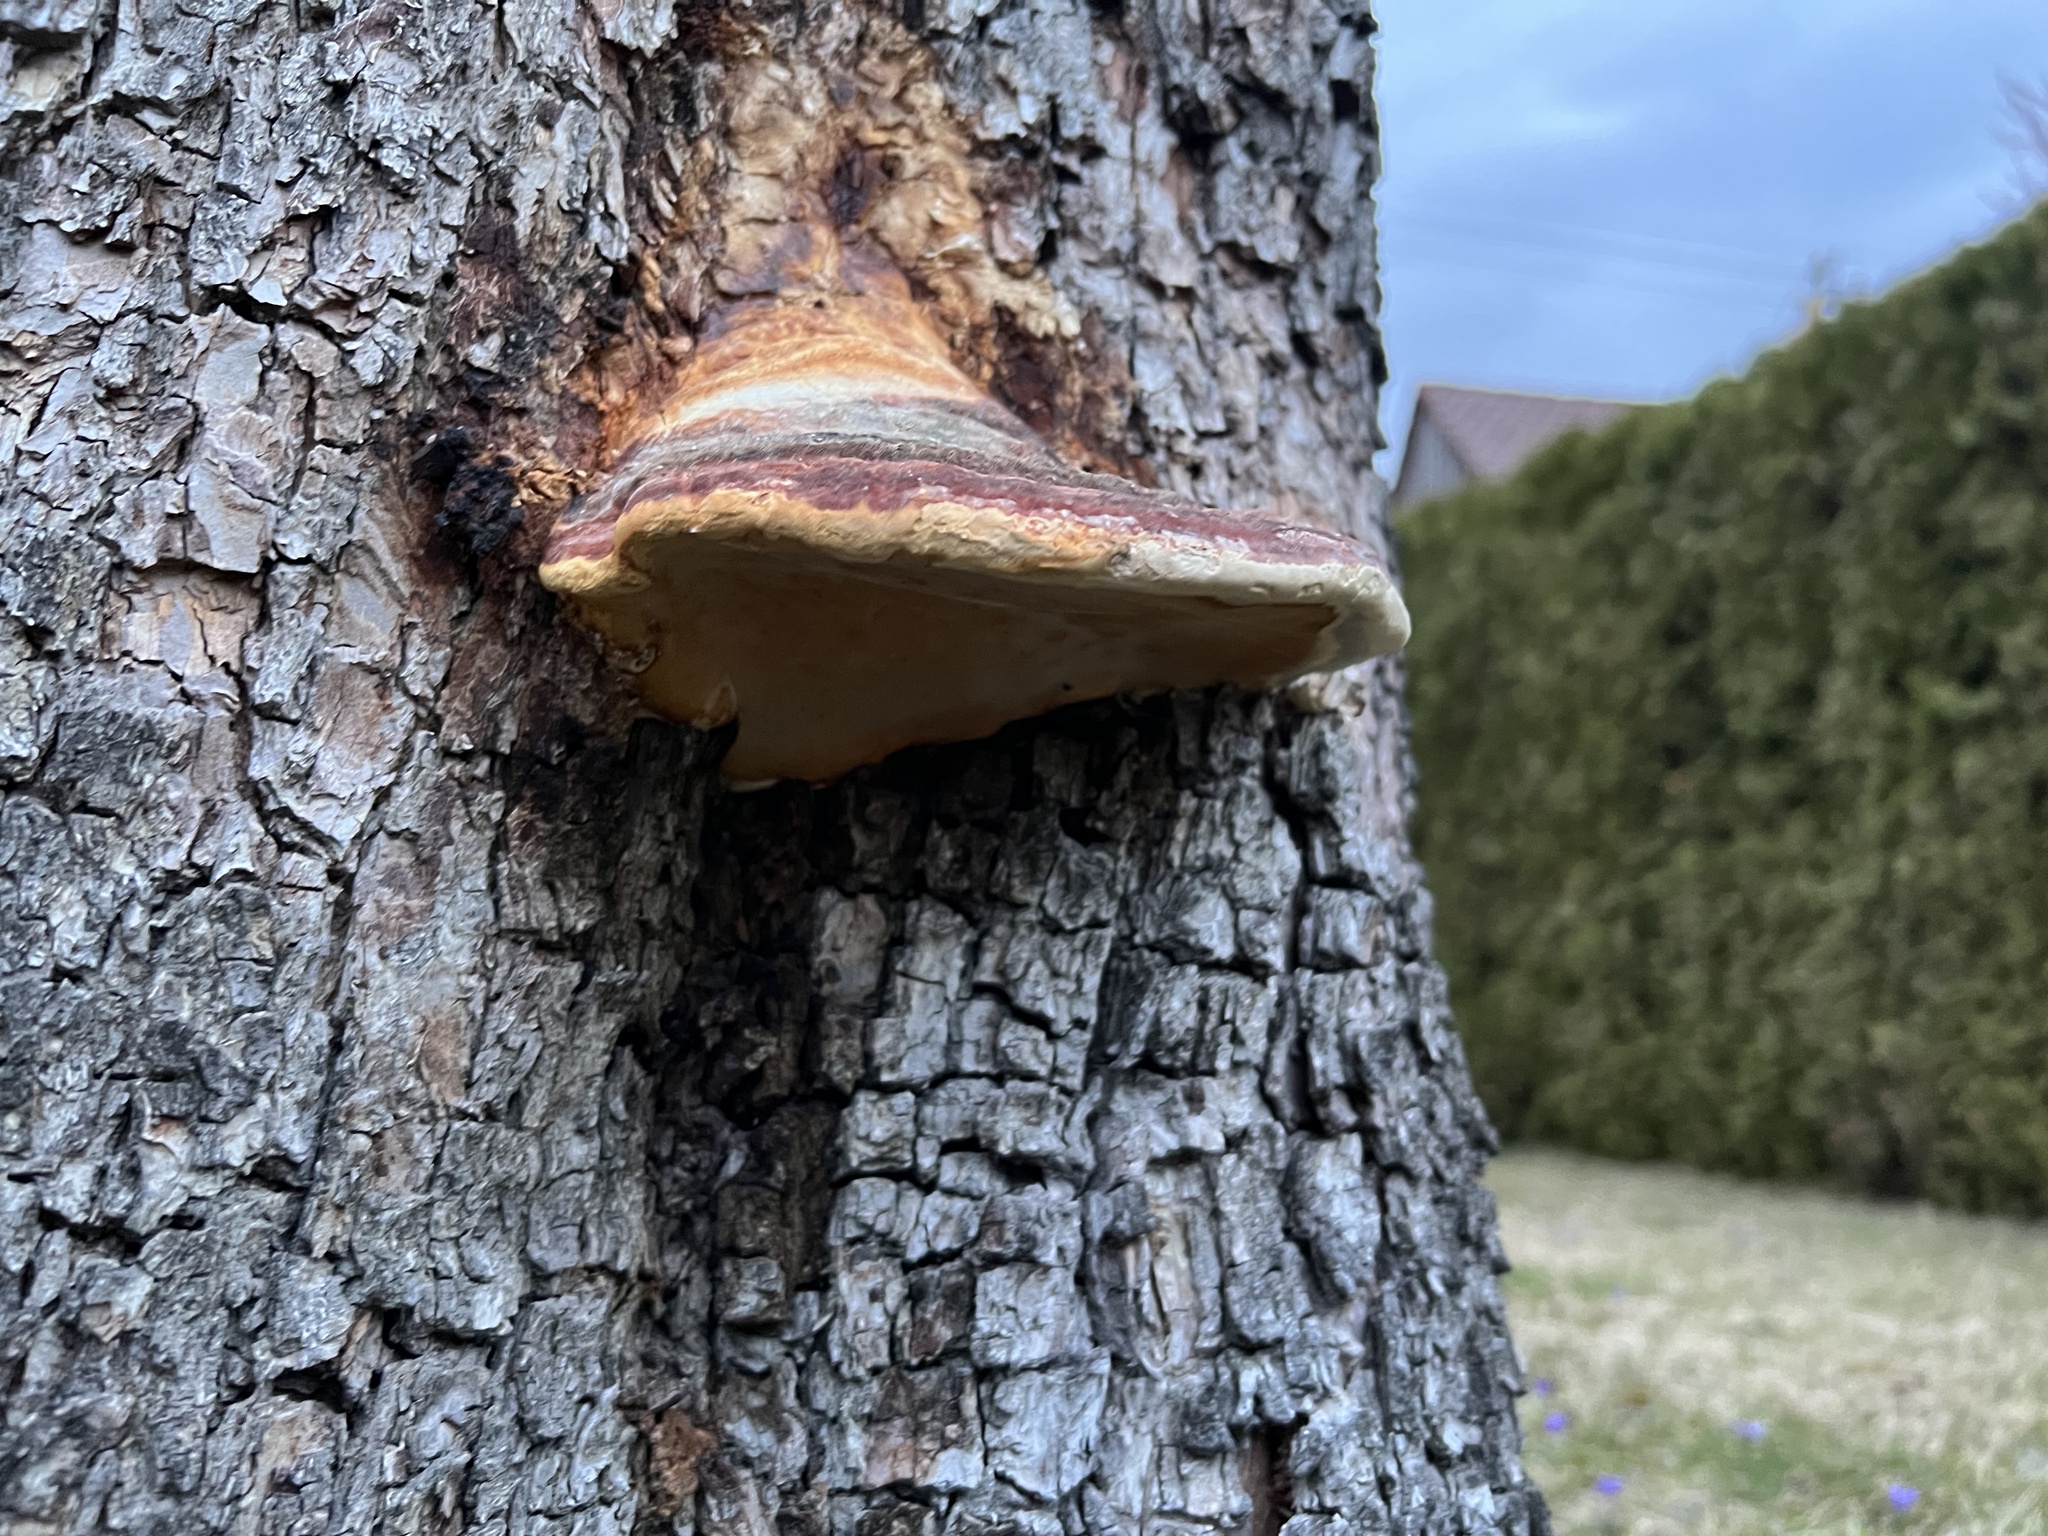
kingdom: Fungi
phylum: Basidiomycota
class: Agaricomycetes
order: Polyporales
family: Fomitopsidaceae
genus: Fomitopsis
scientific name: Fomitopsis pinicola
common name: Red-belted bracket
